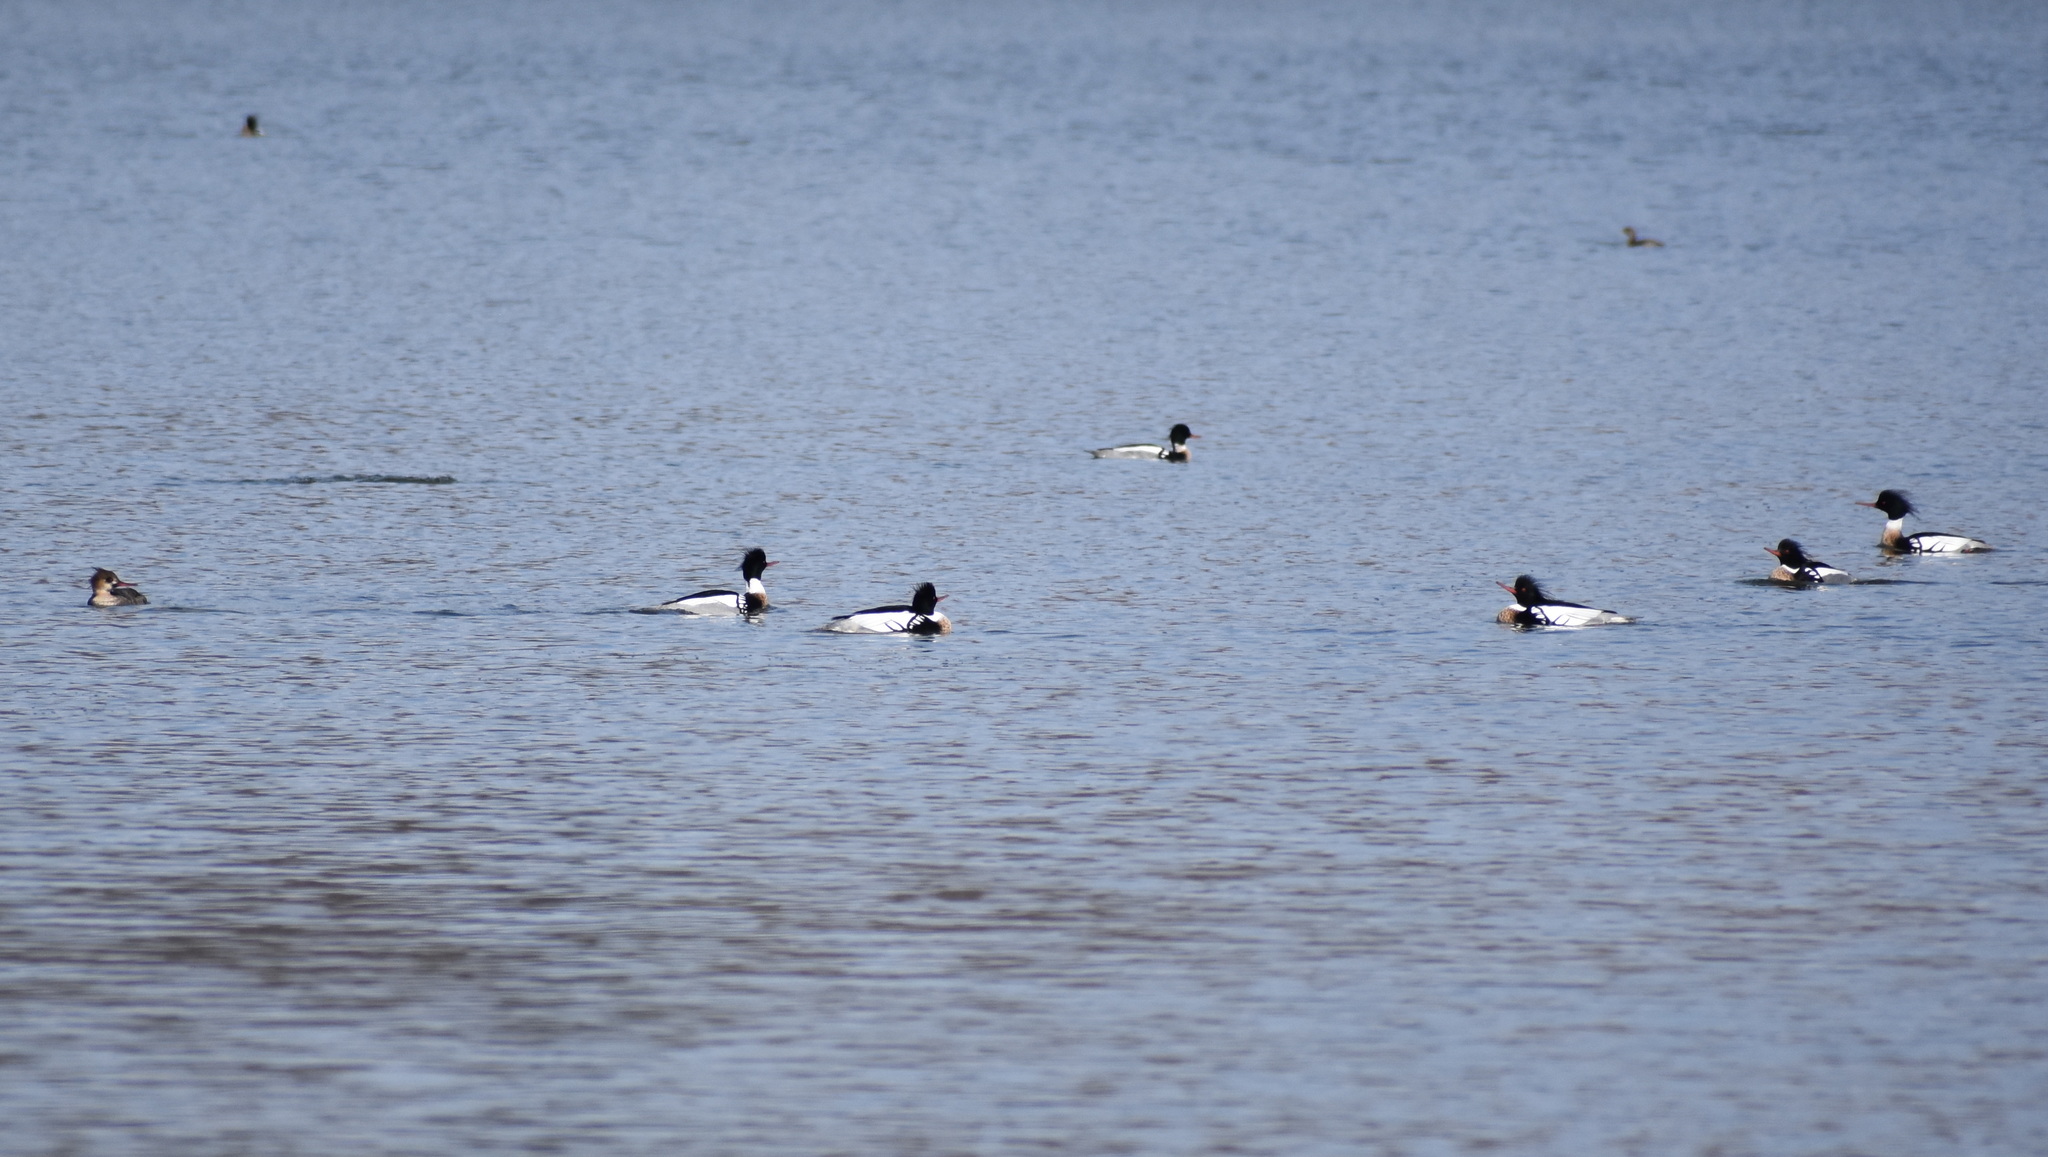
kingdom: Animalia
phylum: Chordata
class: Aves
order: Anseriformes
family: Anatidae
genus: Mergus
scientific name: Mergus serrator
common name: Red-breasted merganser
